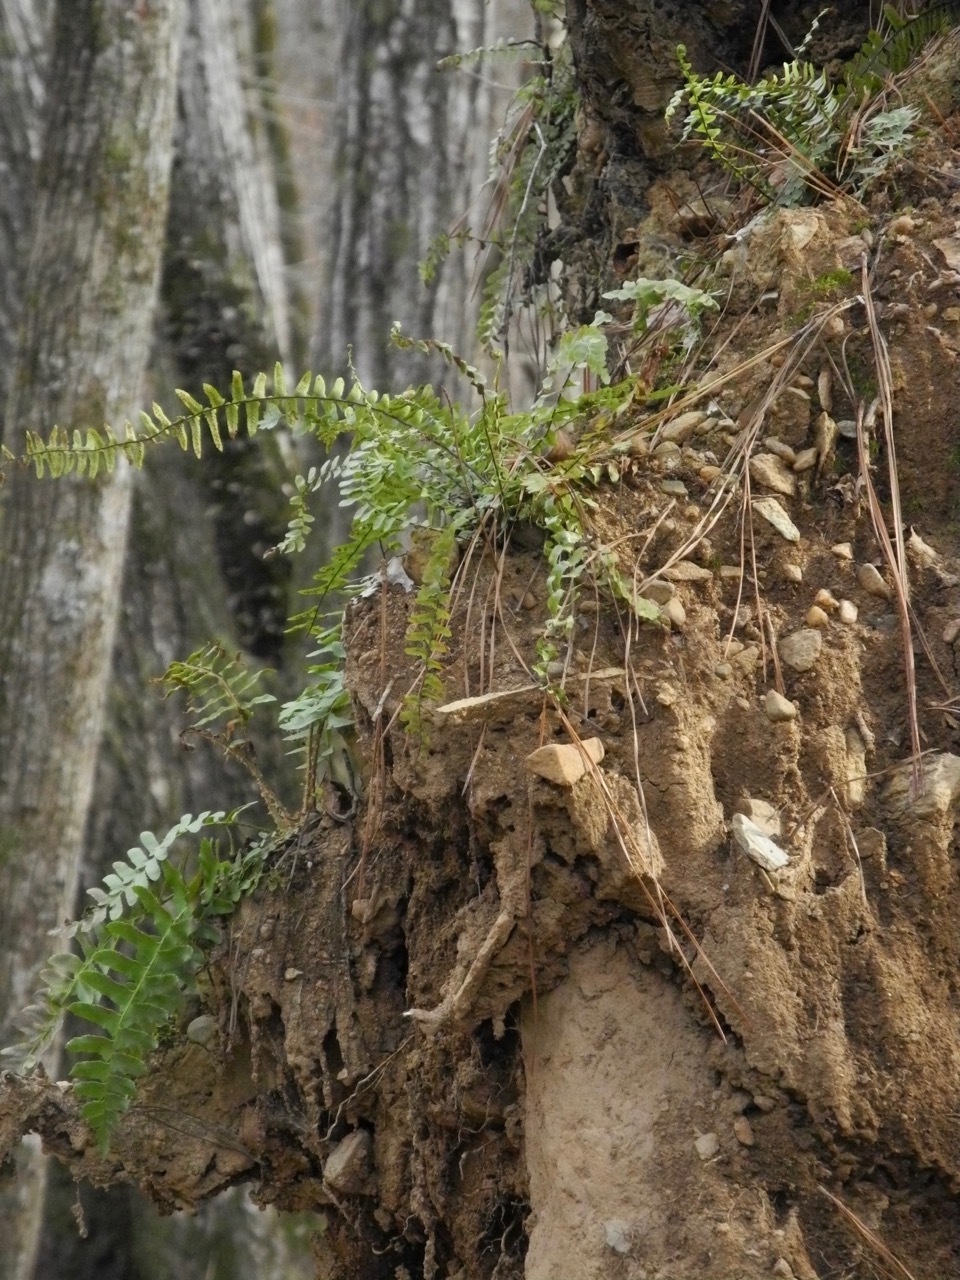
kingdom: Plantae
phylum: Tracheophyta
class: Polypodiopsida
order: Polypodiales
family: Aspleniaceae
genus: Asplenium
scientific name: Asplenium platyneuron
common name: Ebony spleenwort
